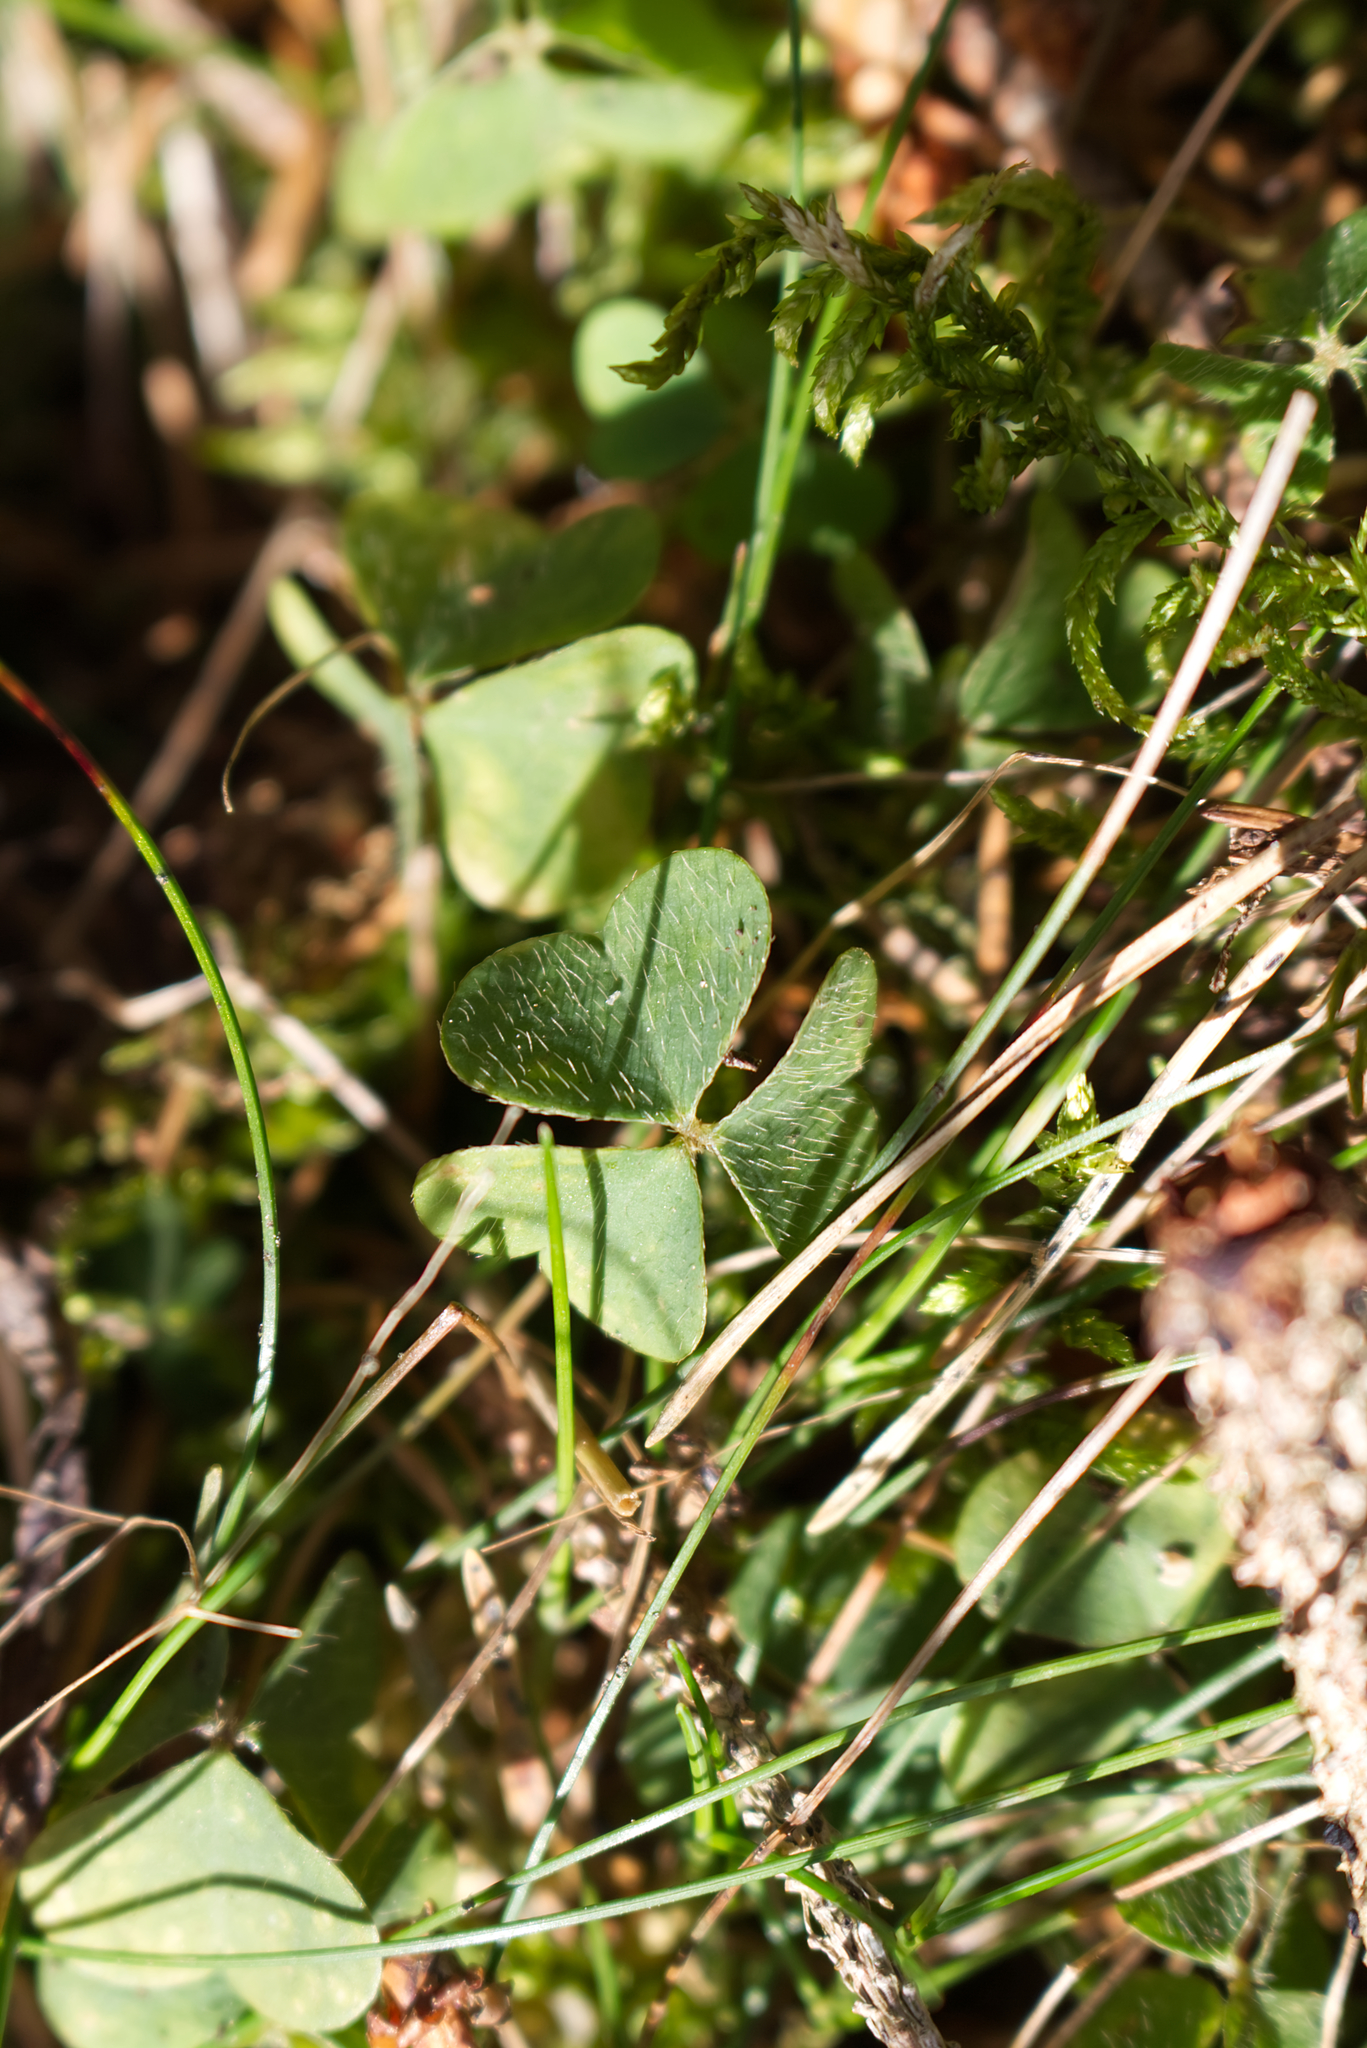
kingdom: Plantae
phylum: Tracheophyta
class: Magnoliopsida
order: Oxalidales
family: Oxalidaceae
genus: Oxalis
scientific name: Oxalis acetosella
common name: Wood-sorrel
